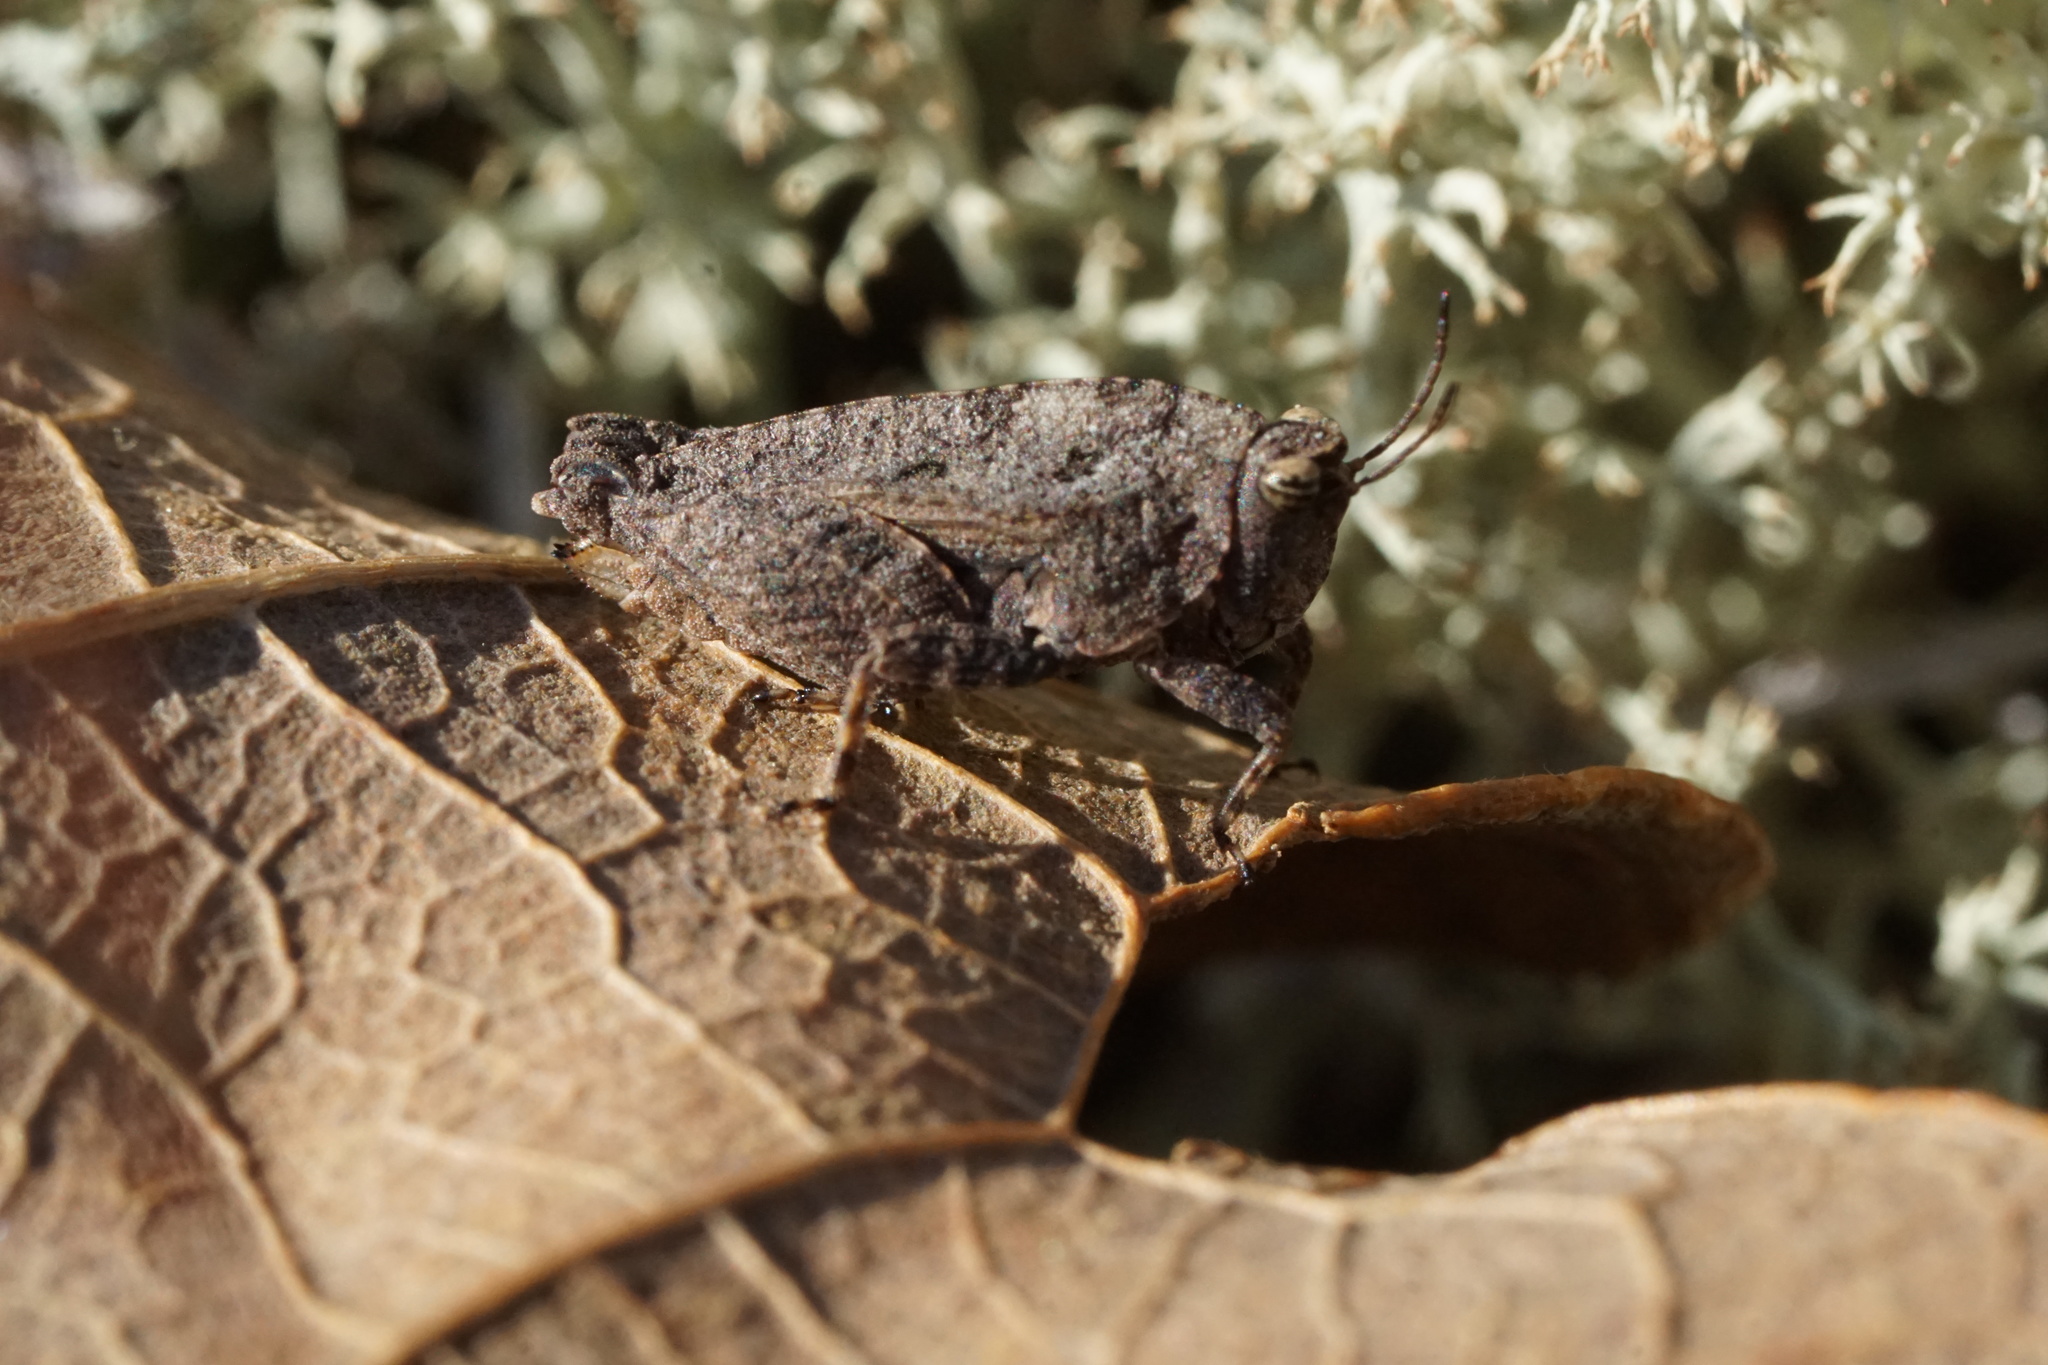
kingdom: Animalia
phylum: Arthropoda
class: Insecta
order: Orthoptera
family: Tetrigidae
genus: Nomotettix
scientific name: Nomotettix cristatus
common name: Crested grouse locust
